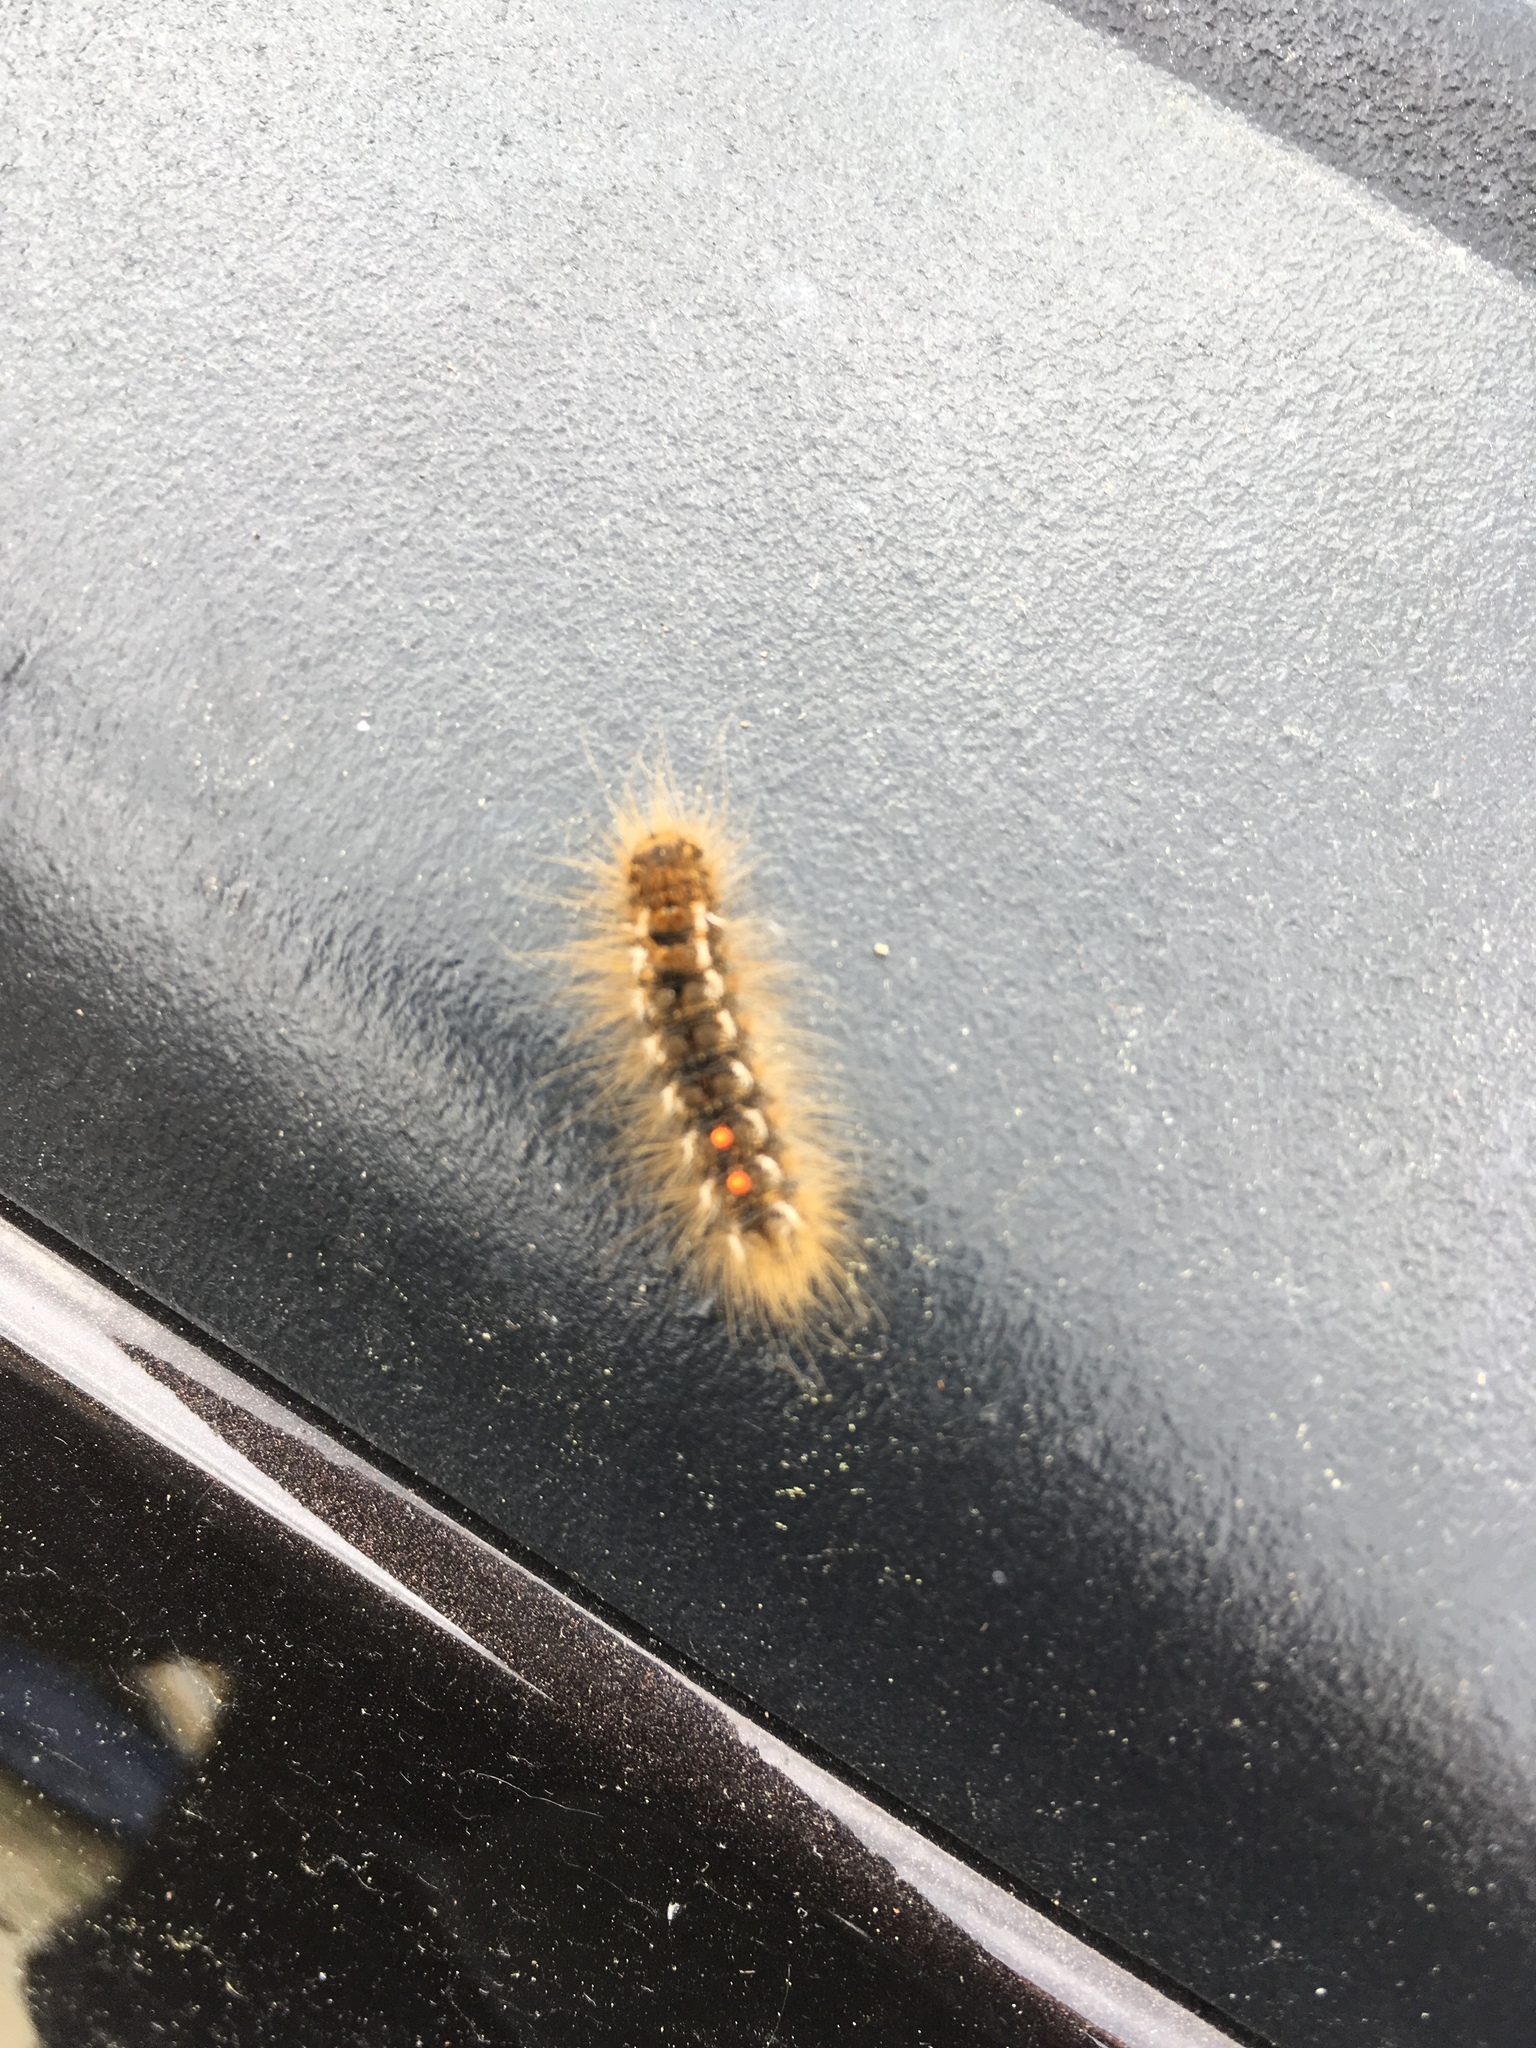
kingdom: Animalia
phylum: Arthropoda
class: Insecta
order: Lepidoptera
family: Erebidae
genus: Euproctis
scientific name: Euproctis chrysorrhoea
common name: Brown-tail
